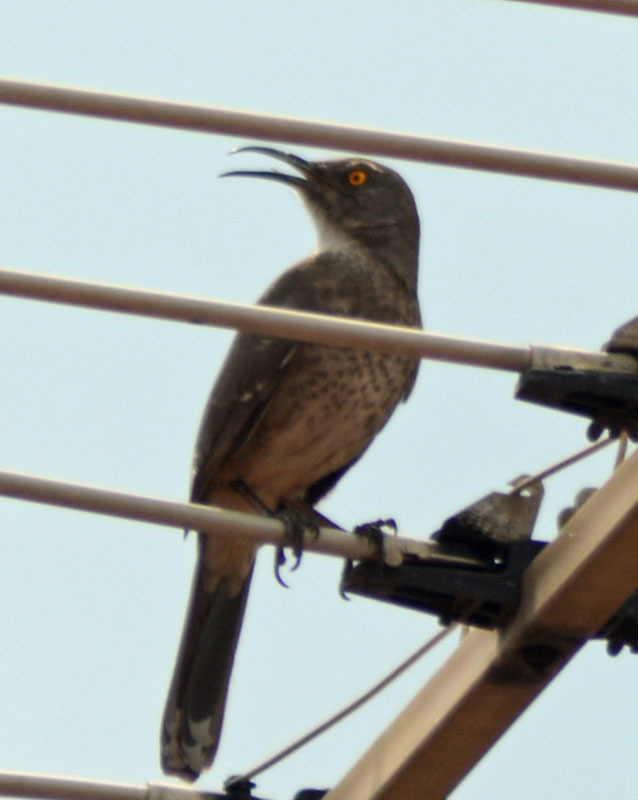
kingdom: Animalia
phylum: Chordata
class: Aves
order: Passeriformes
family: Mimidae
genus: Toxostoma
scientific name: Toxostoma curvirostre
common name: Curve-billed thrasher
